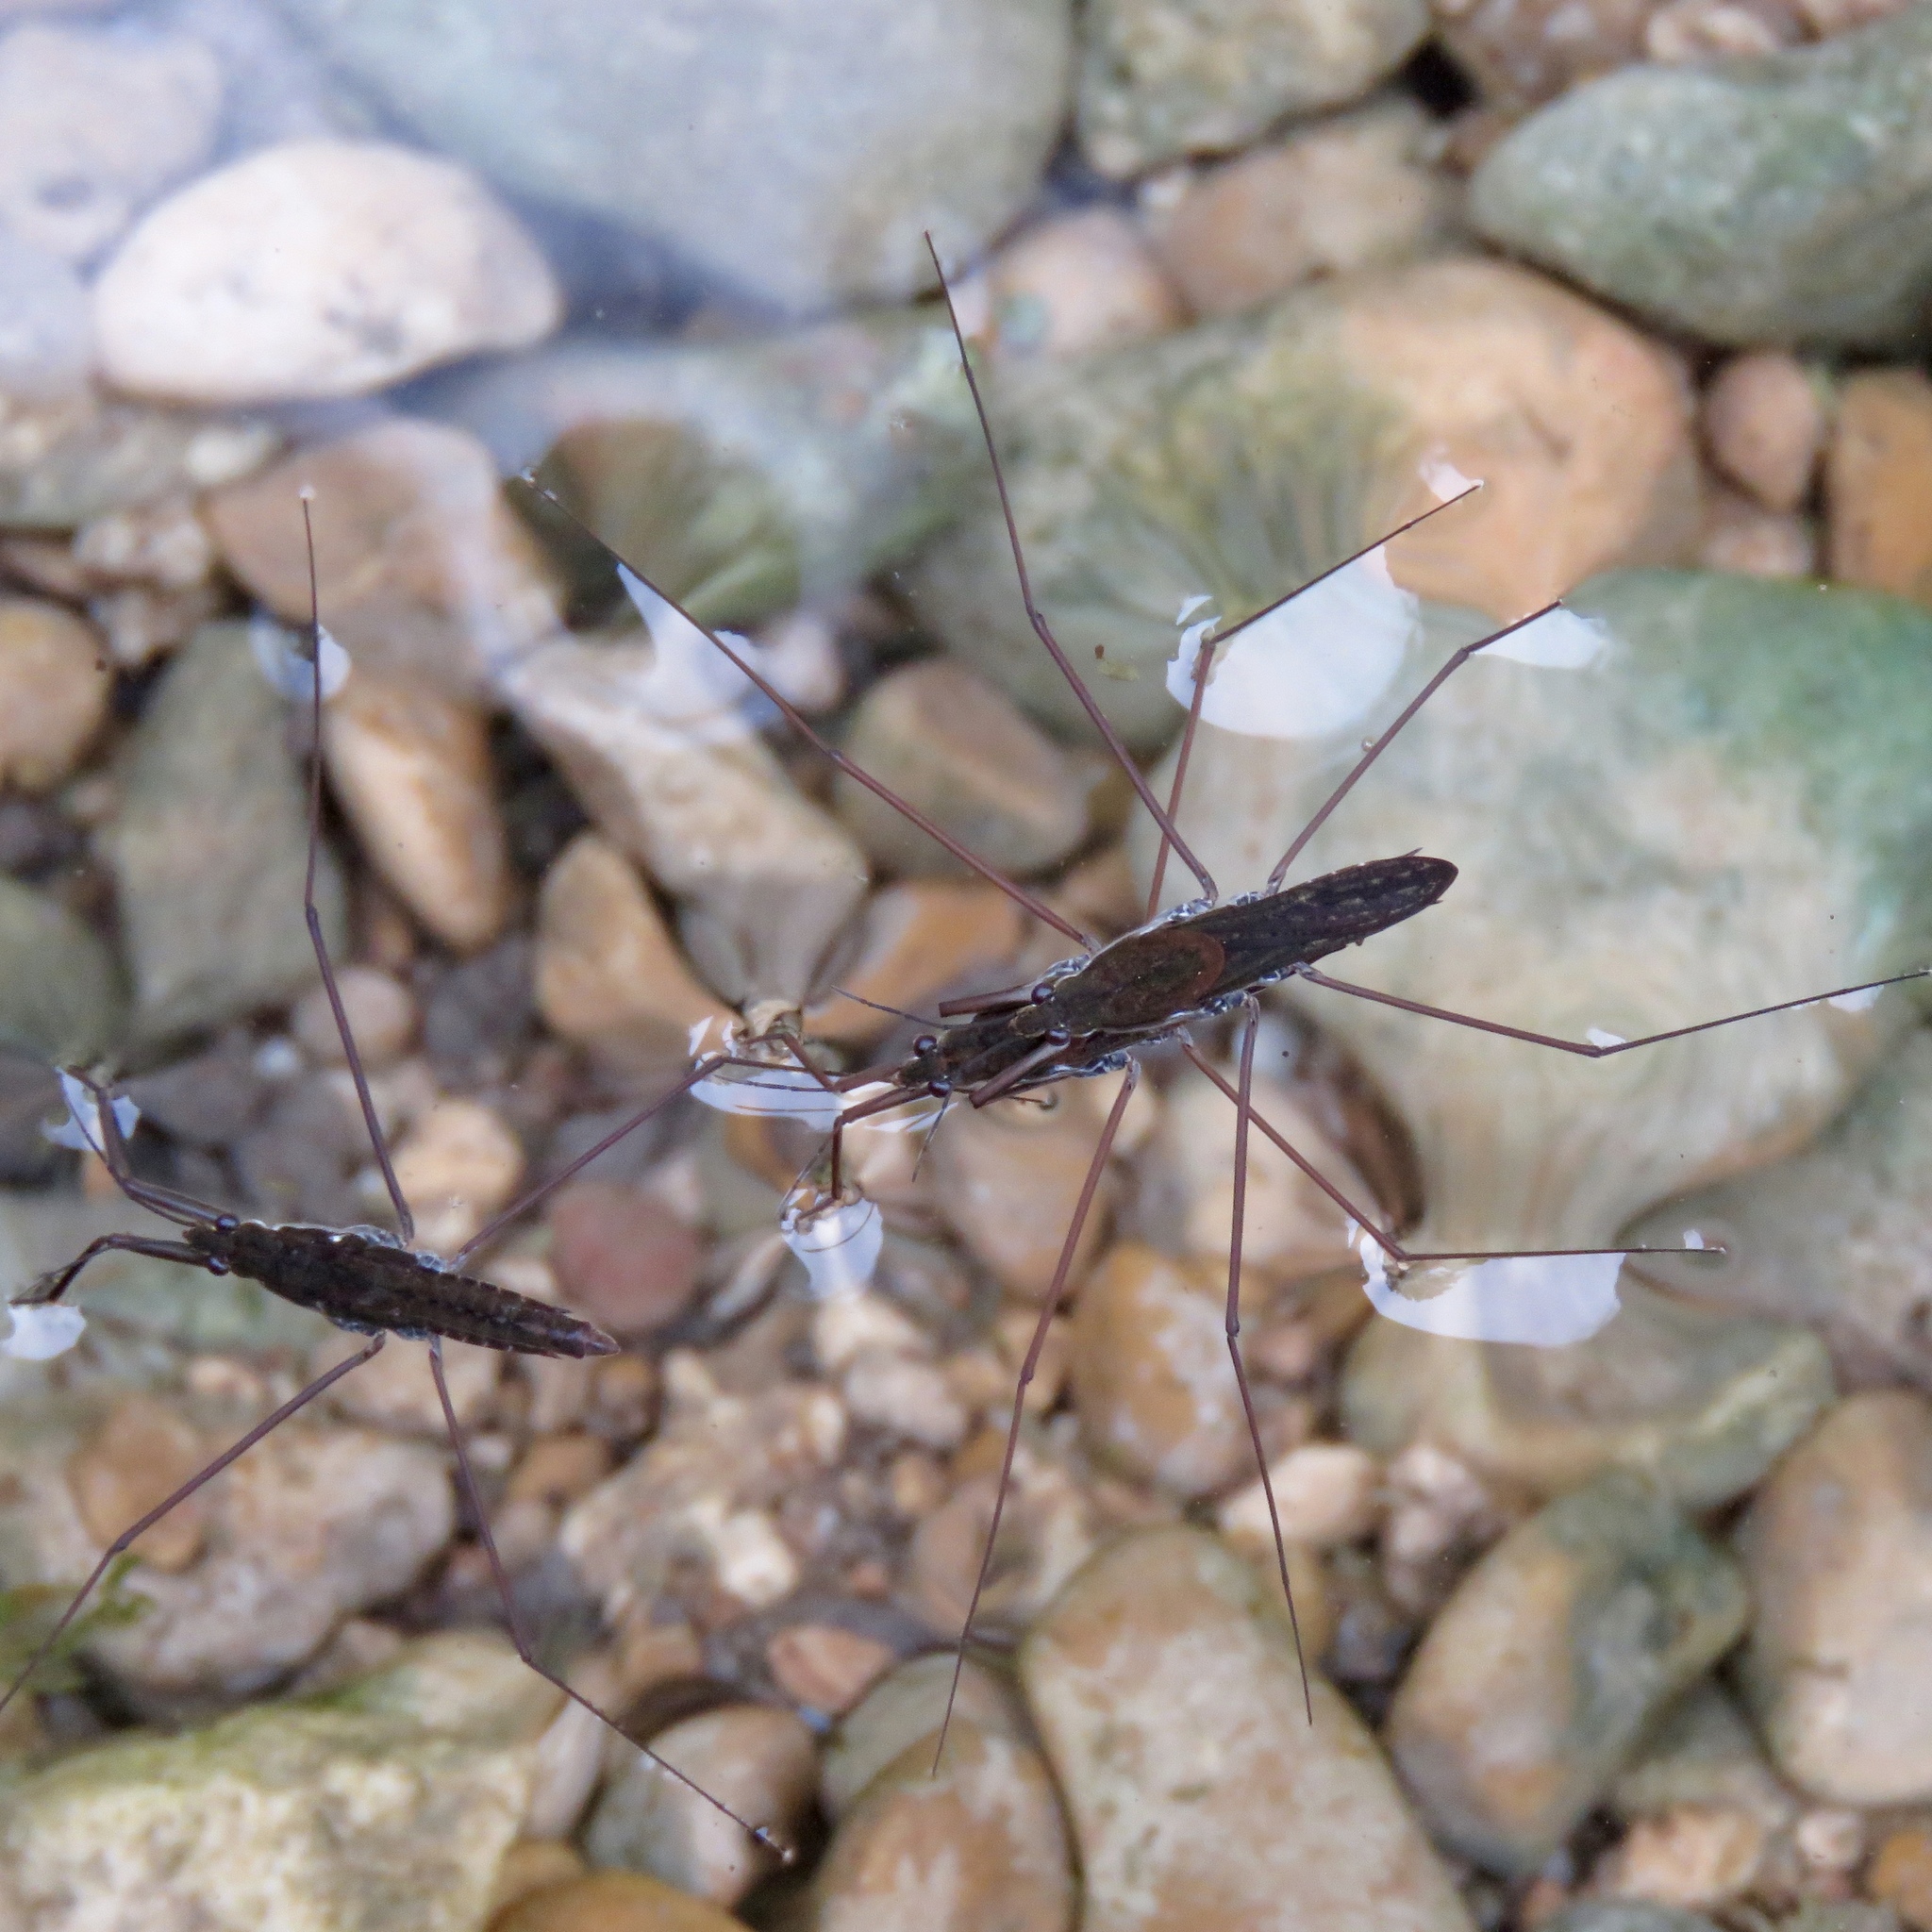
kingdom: Animalia
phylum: Arthropoda
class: Insecta
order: Hemiptera
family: Gerridae
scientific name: Gerridae
